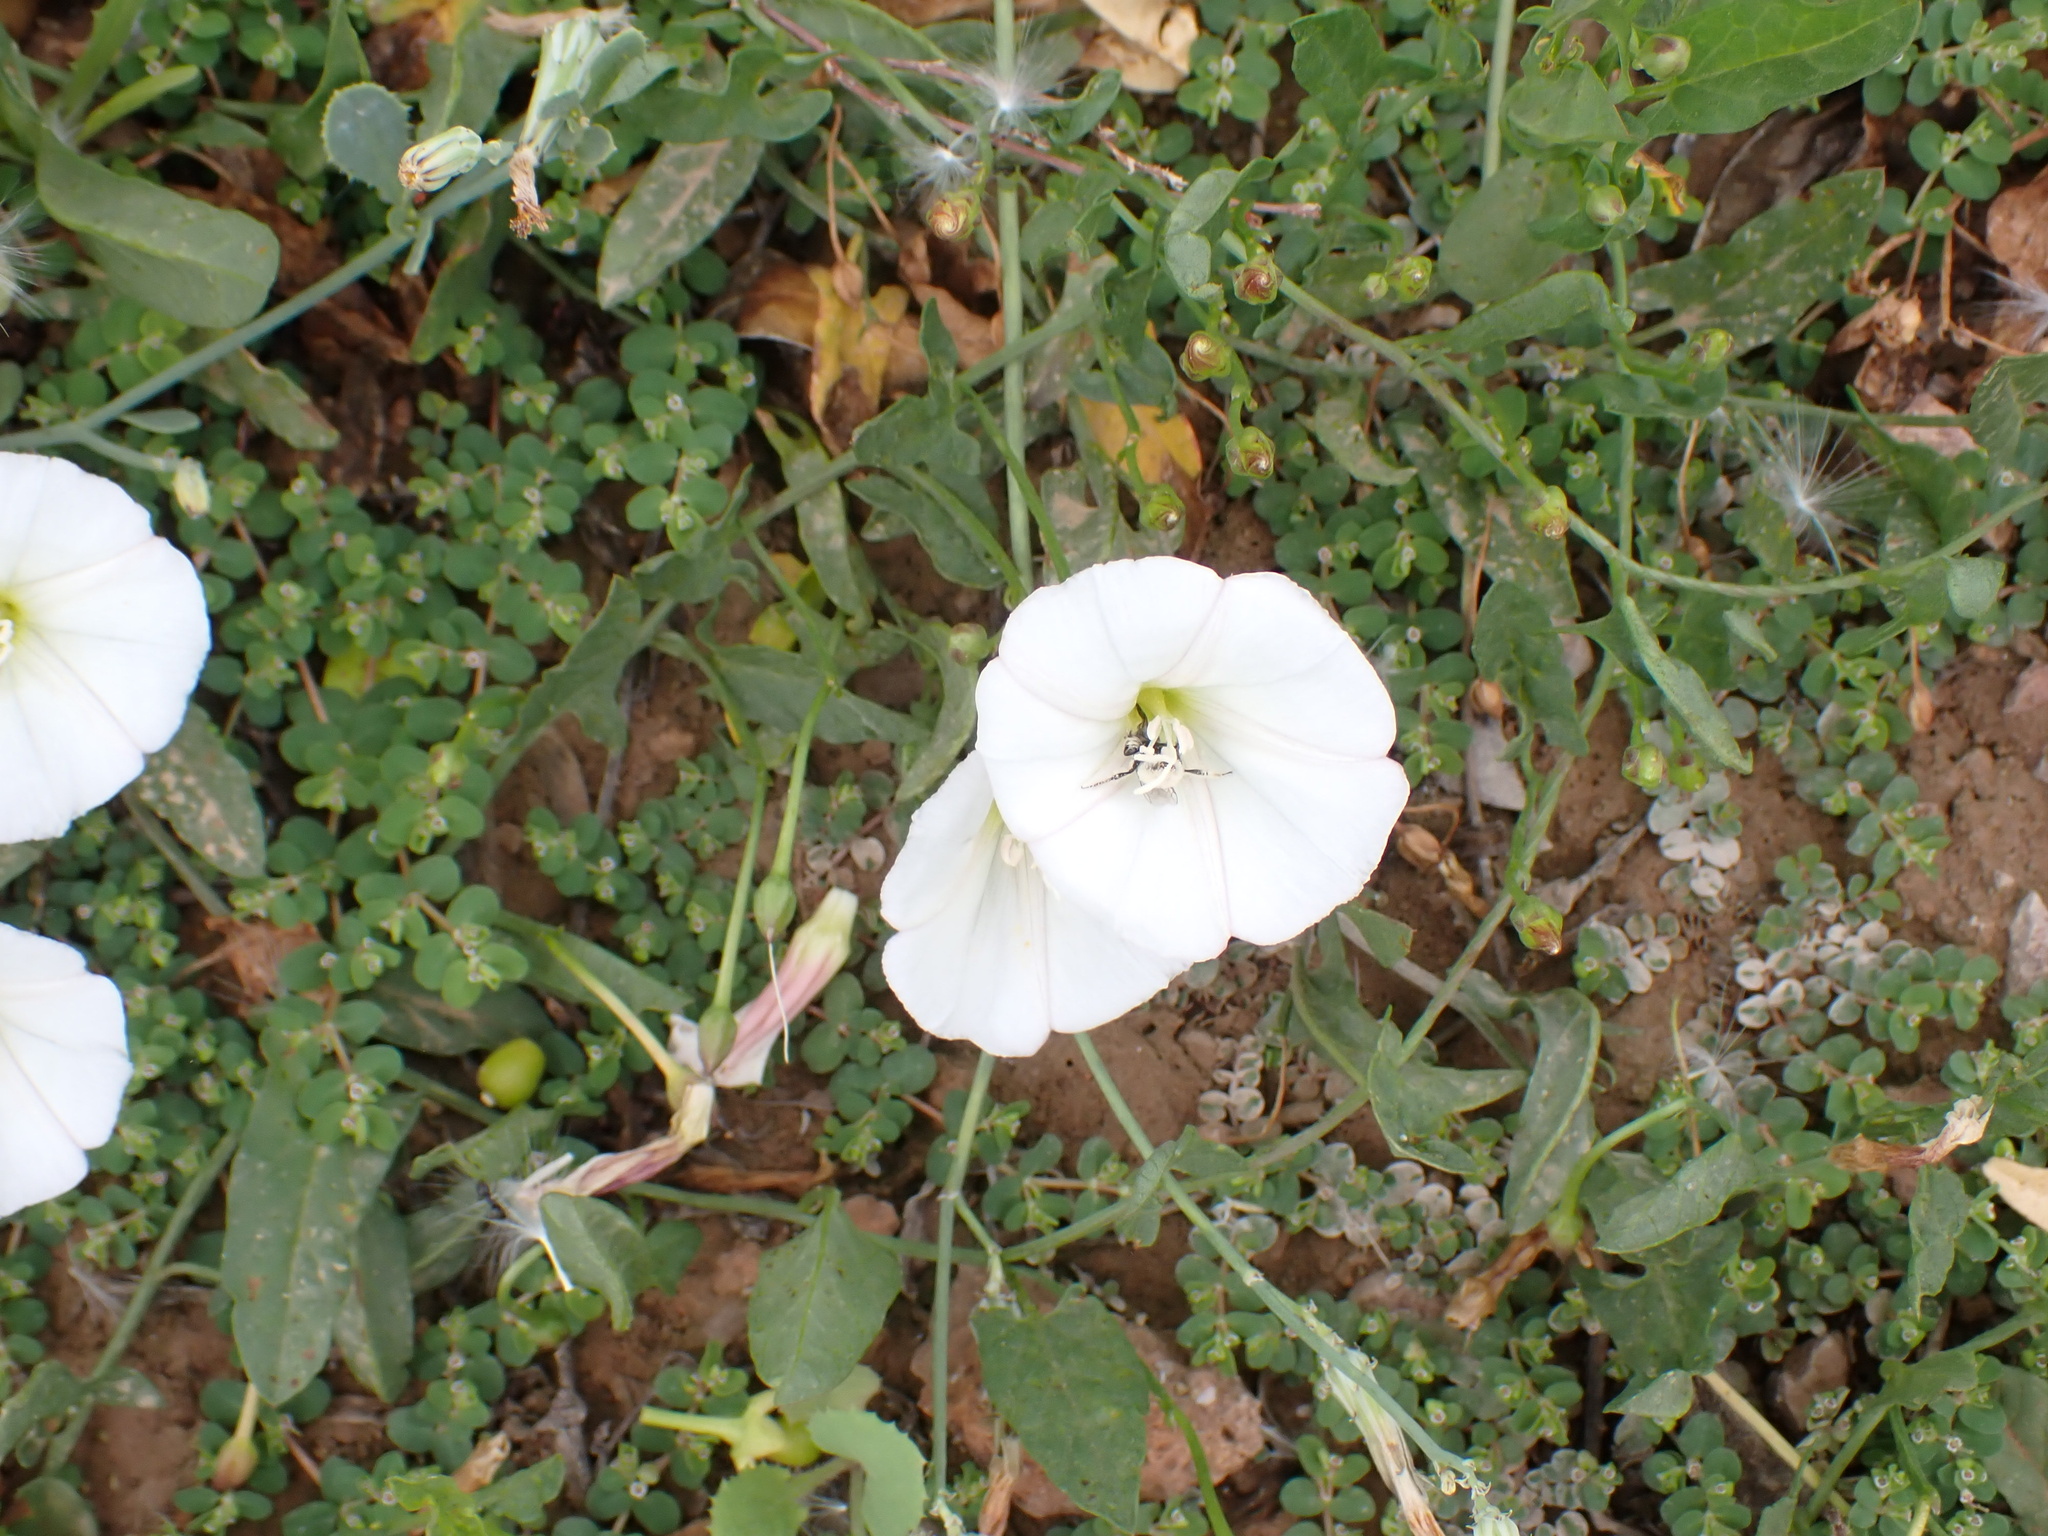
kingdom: Plantae
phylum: Tracheophyta
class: Magnoliopsida
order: Solanales
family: Convolvulaceae
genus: Convolvulus
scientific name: Convolvulus arvensis
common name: Field bindweed
